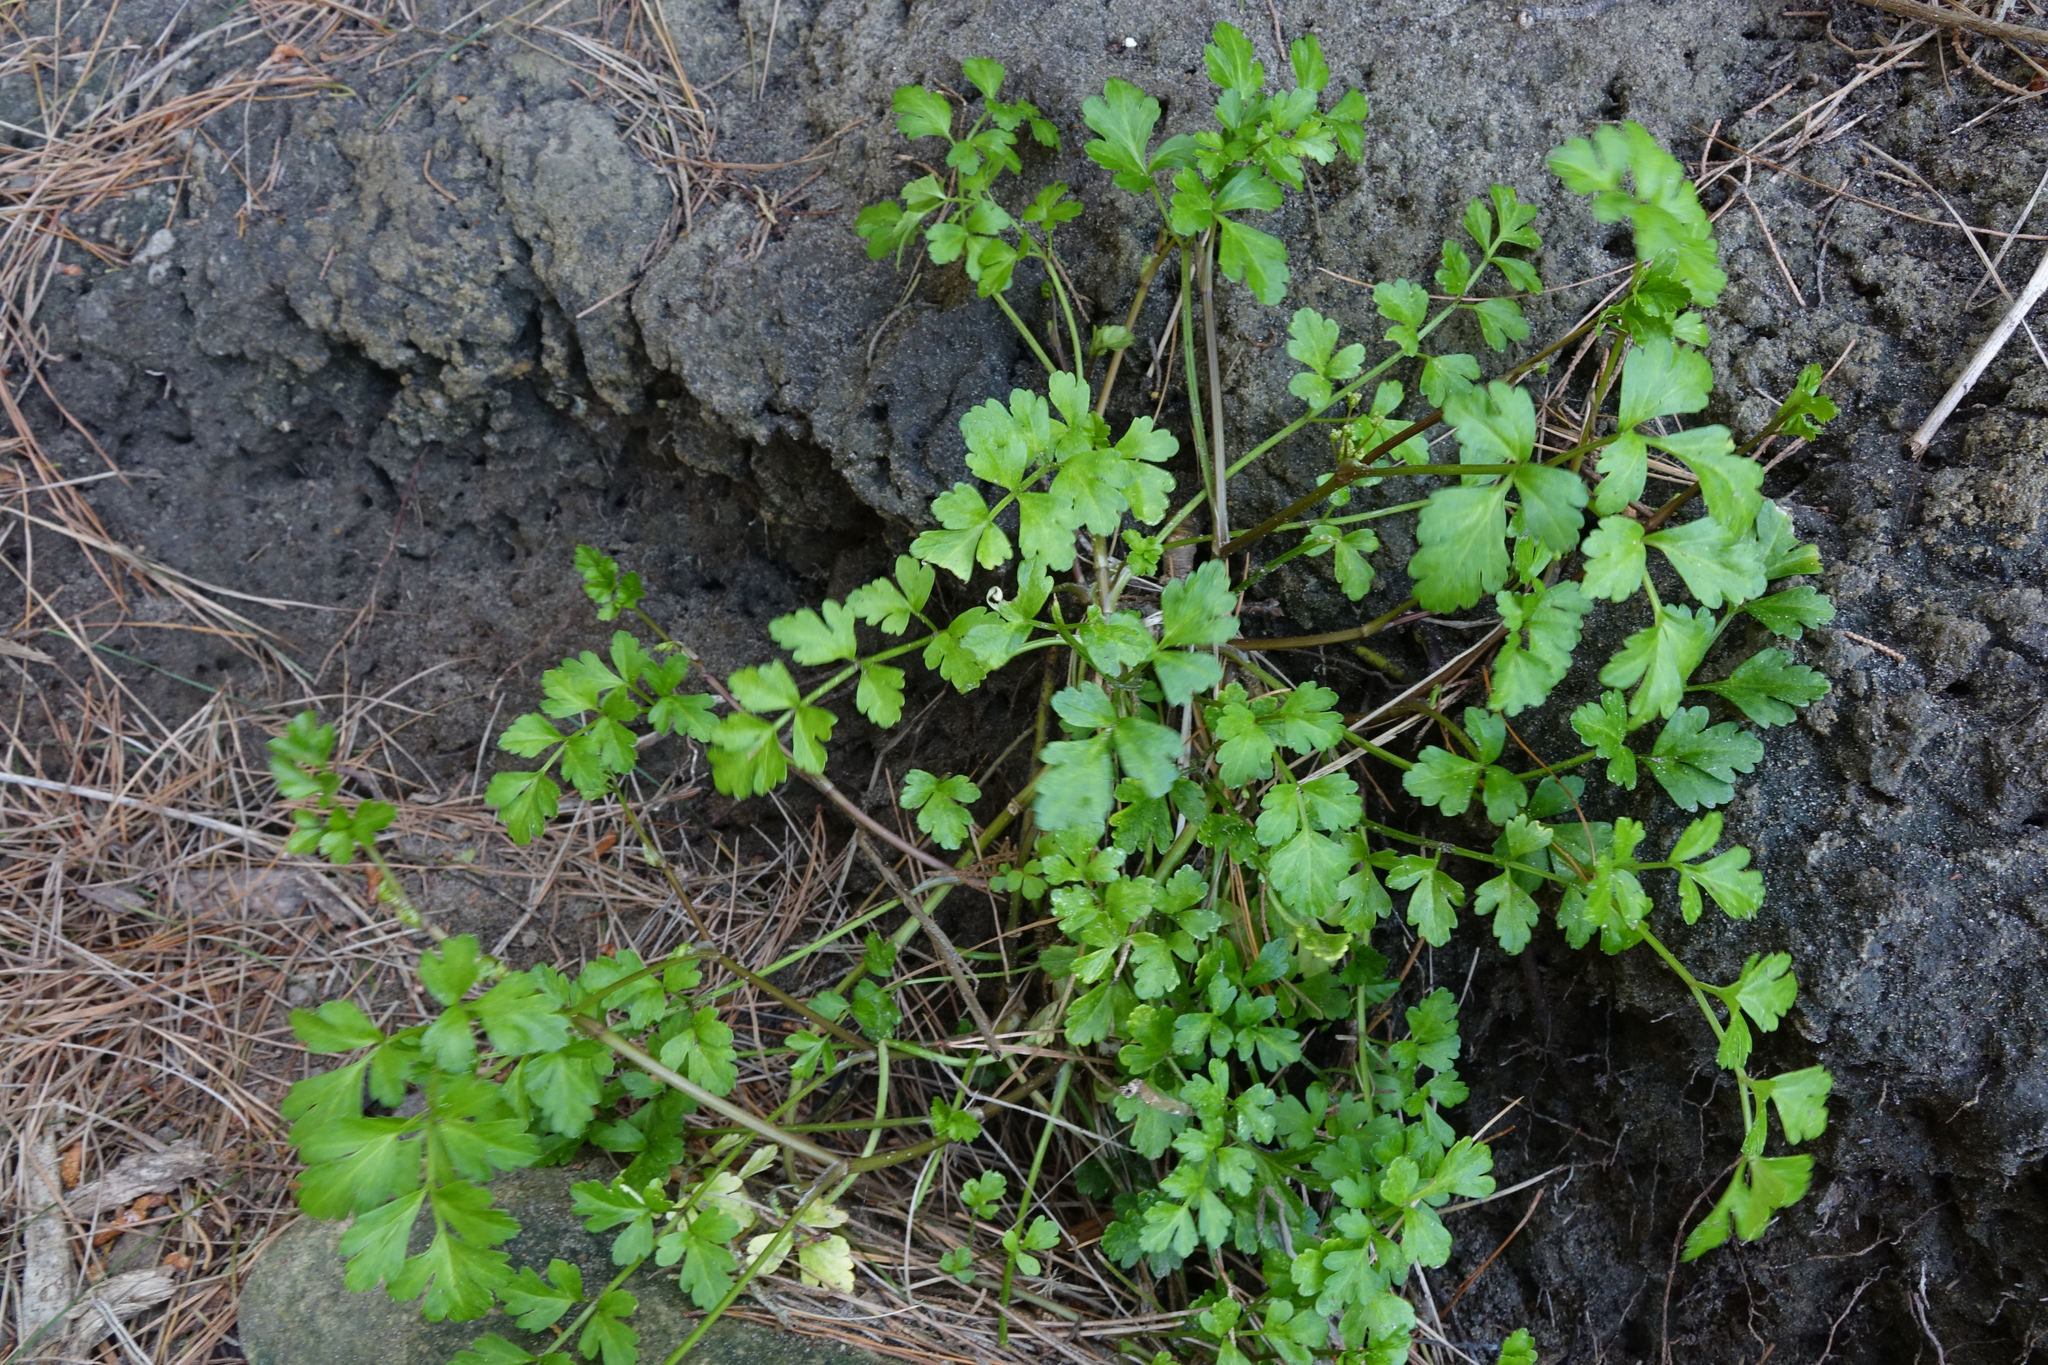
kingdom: Plantae
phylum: Tracheophyta
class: Magnoliopsida
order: Apiales
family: Apiaceae
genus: Apium
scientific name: Apium prostratum
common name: Prostrate marshwort
